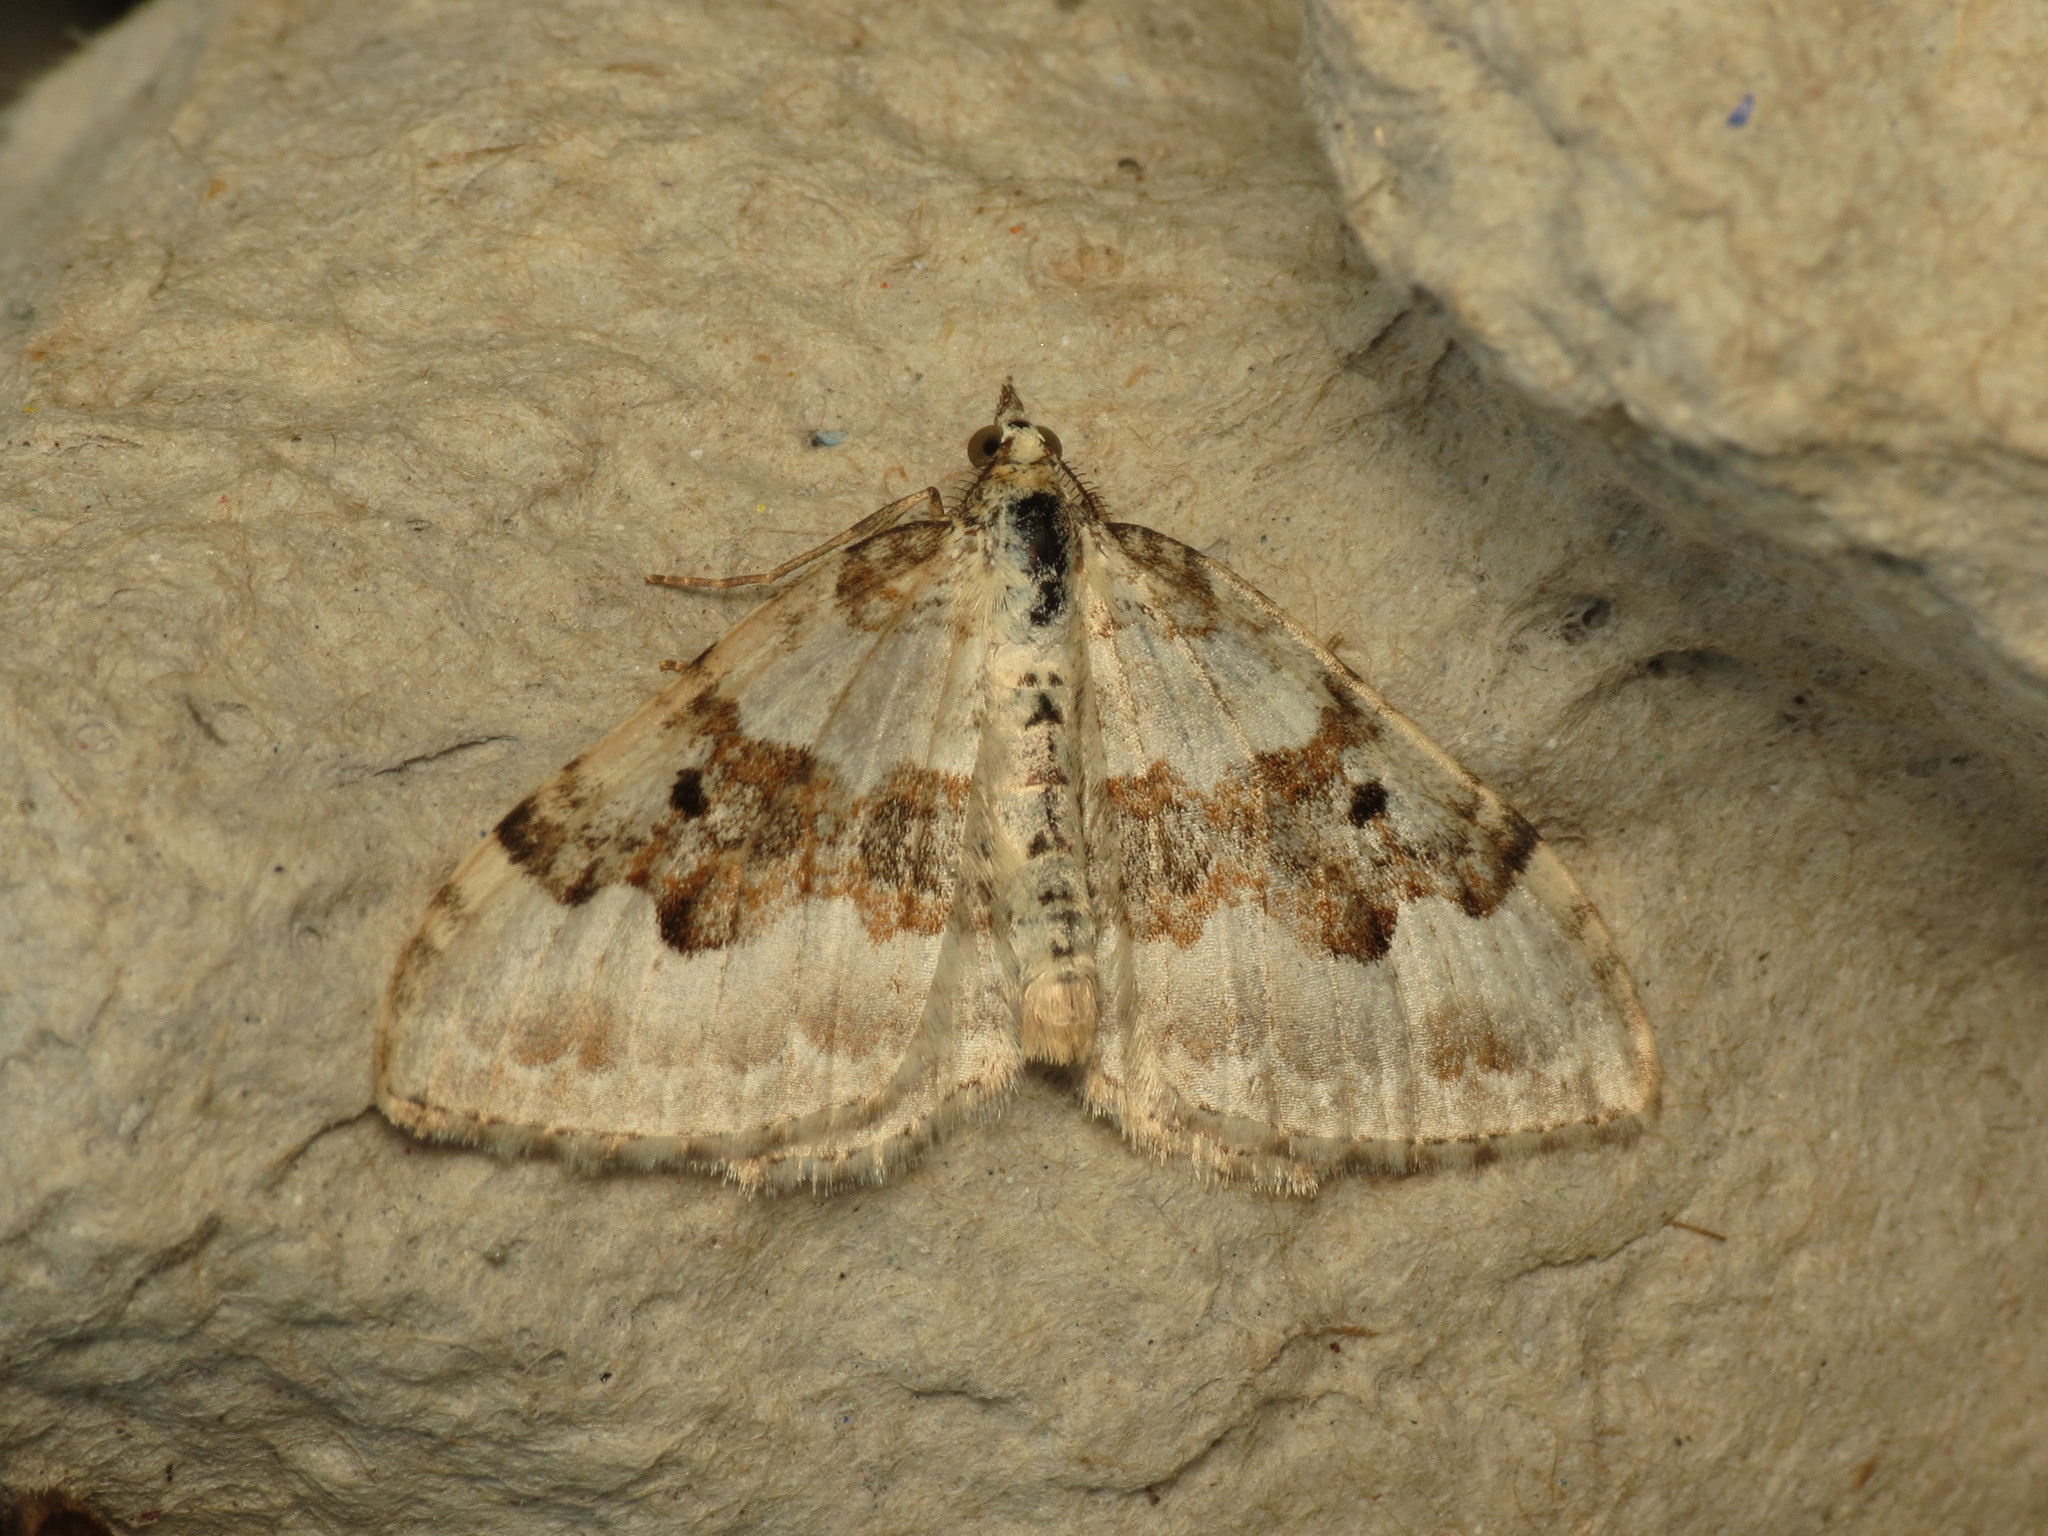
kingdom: Animalia
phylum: Arthropoda
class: Insecta
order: Lepidoptera
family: Geometridae
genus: Xanthorhoe
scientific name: Xanthorhoe montanata
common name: Silver-ground carpet
